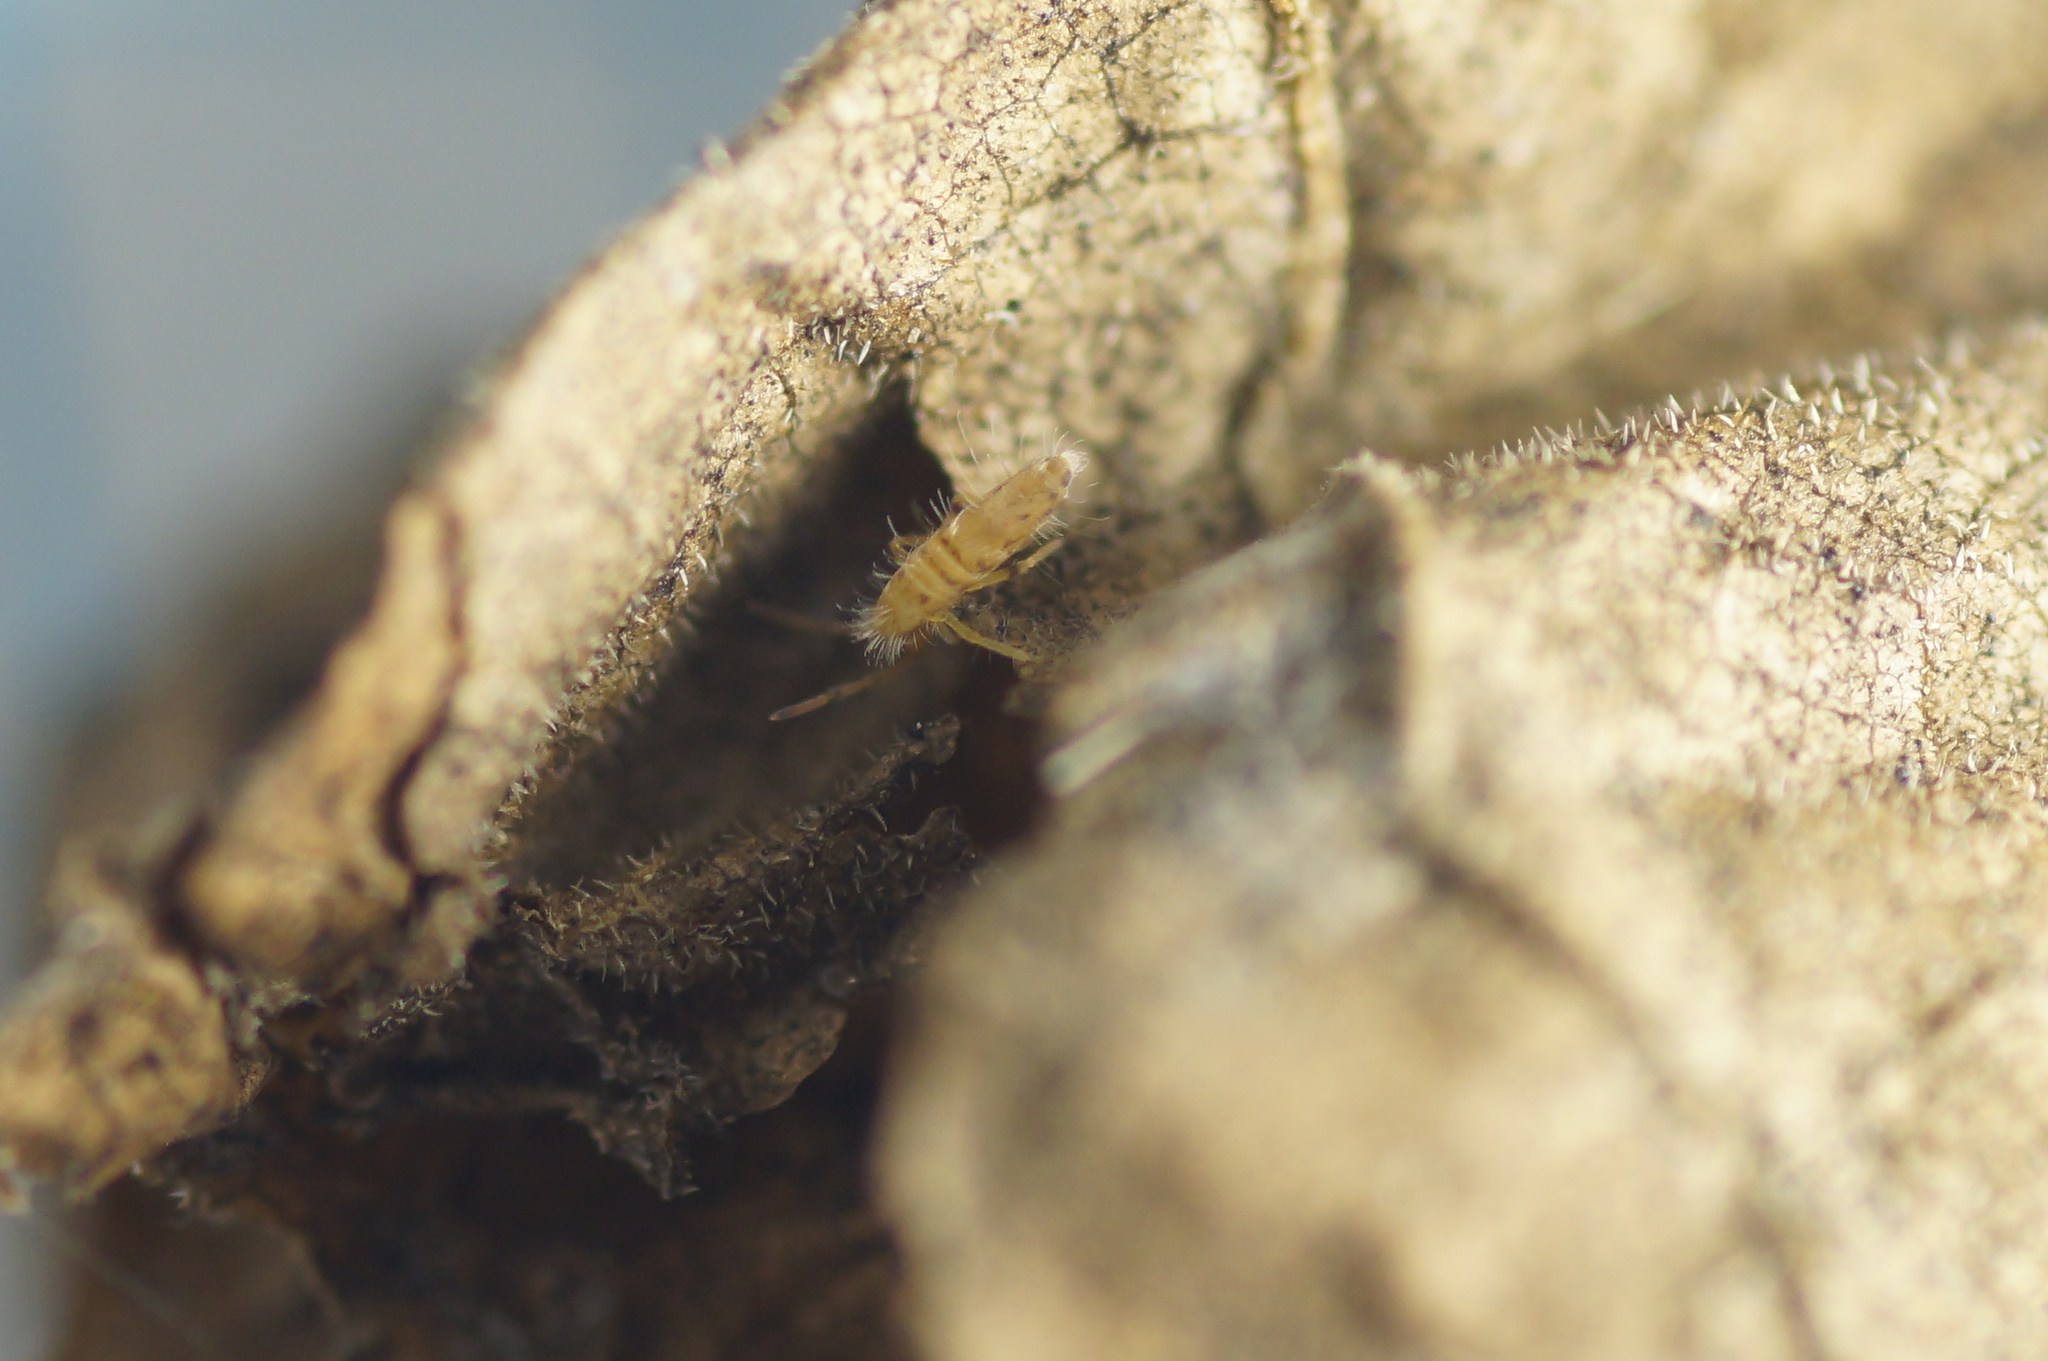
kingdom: Animalia
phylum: Arthropoda
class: Collembola
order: Entomobryomorpha
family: Entomobryidae
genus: Entomobrya
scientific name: Entomobrya dorsalis
